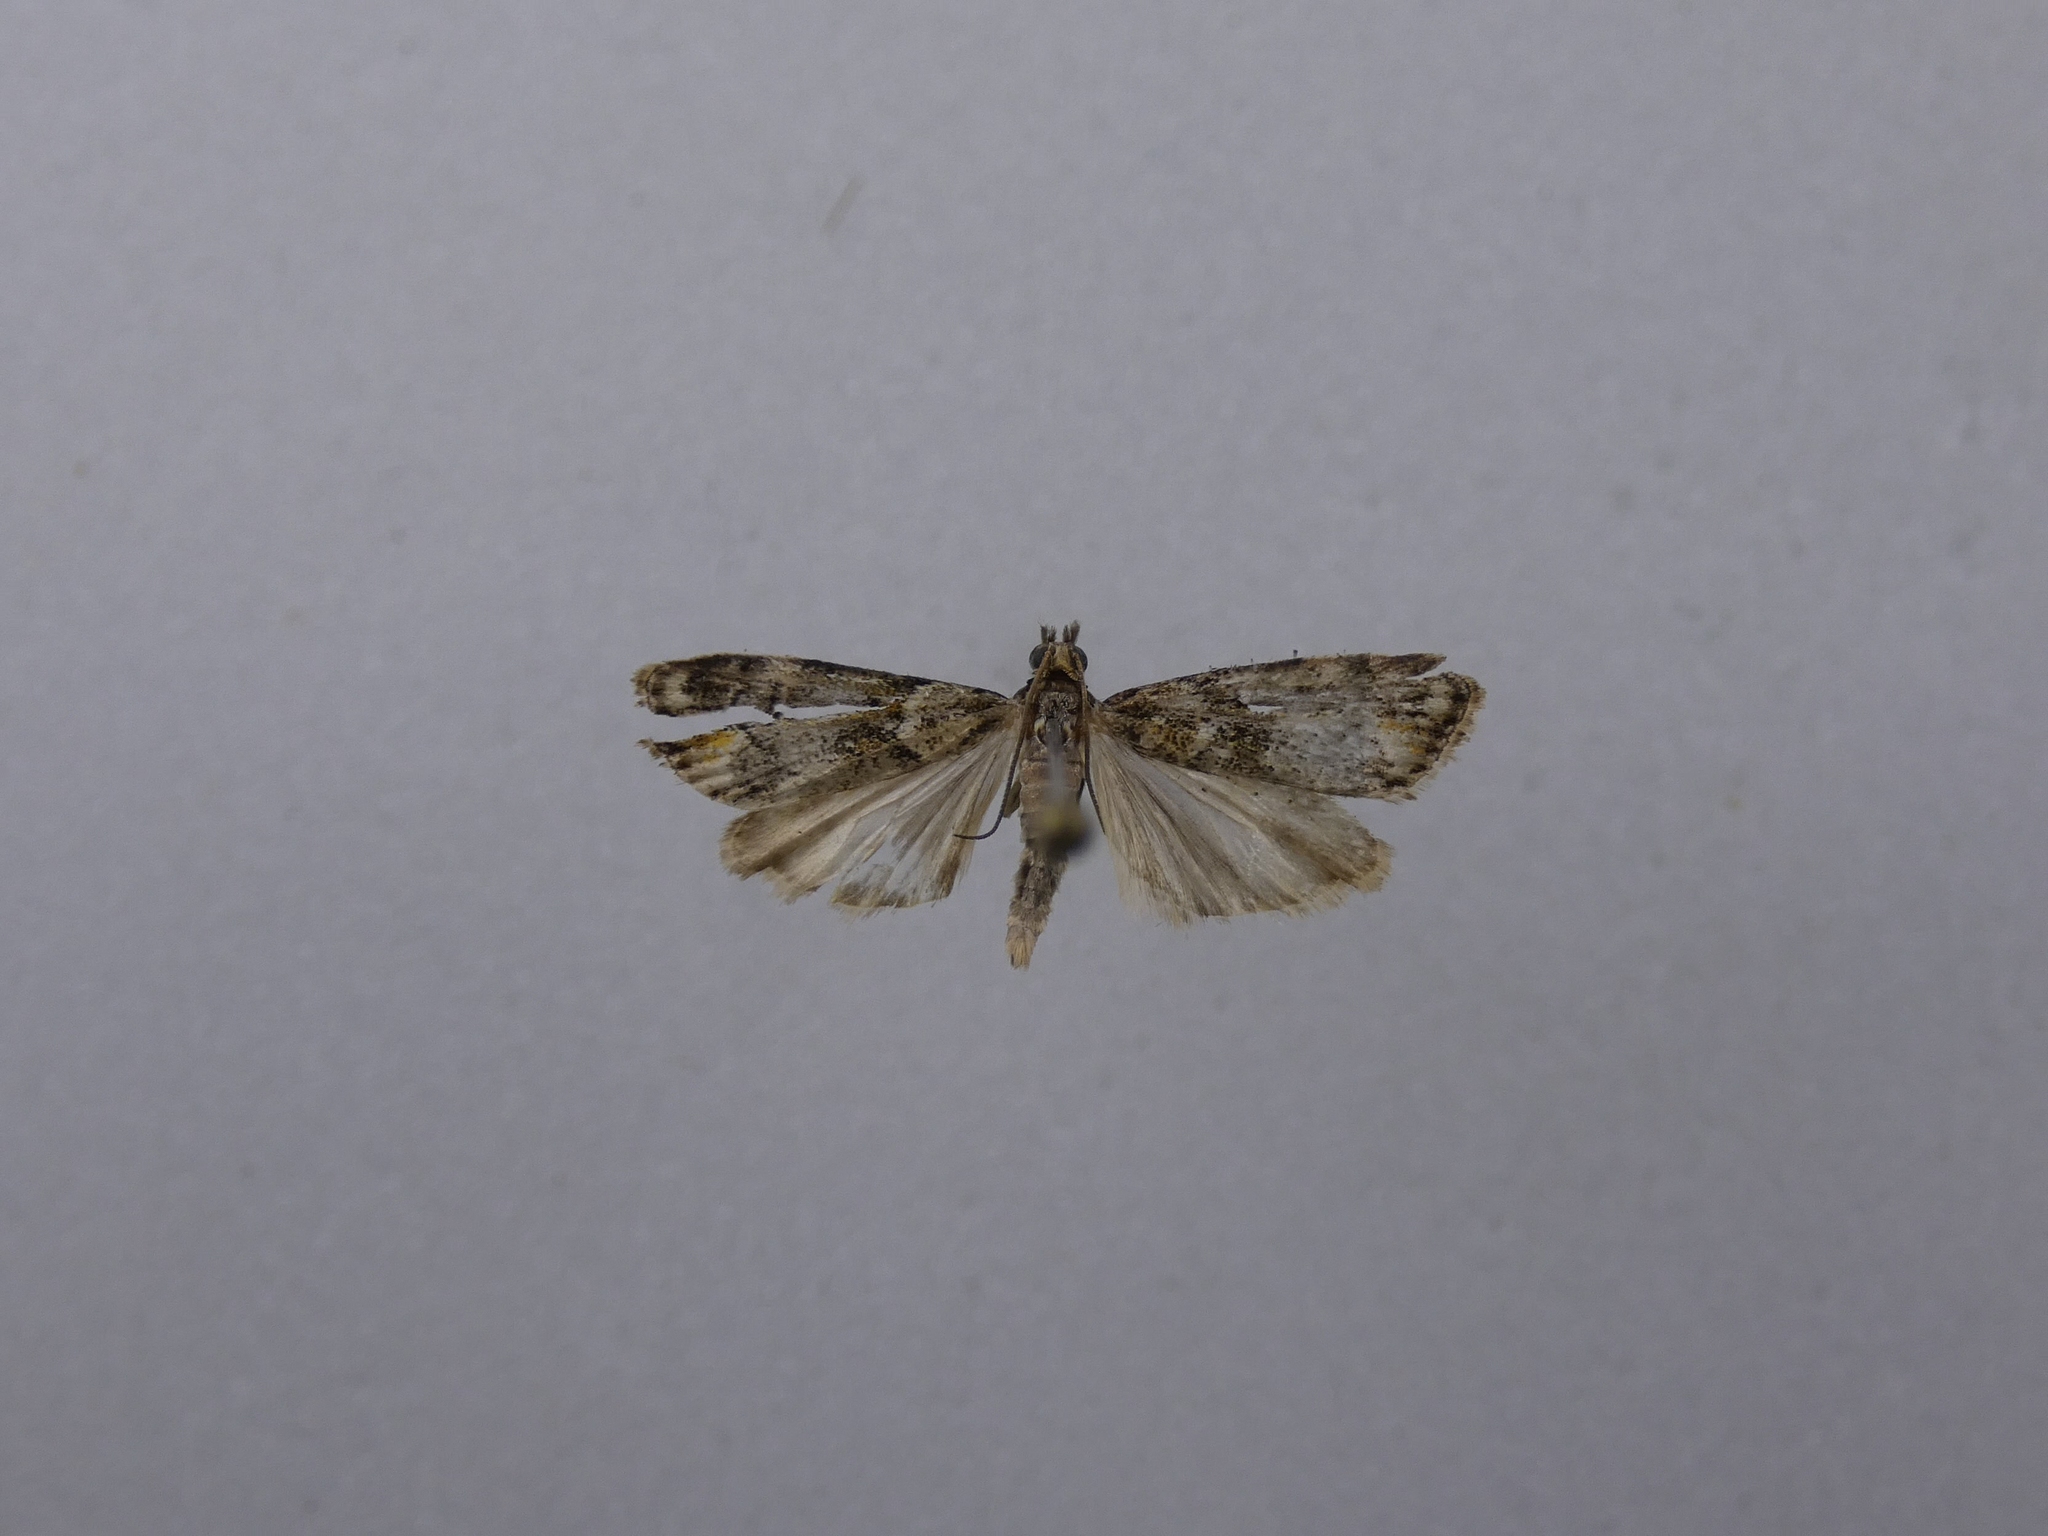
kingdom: Animalia
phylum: Arthropoda
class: Insecta
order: Lepidoptera
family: Crambidae
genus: Eudonia
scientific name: Eudonia minualis
